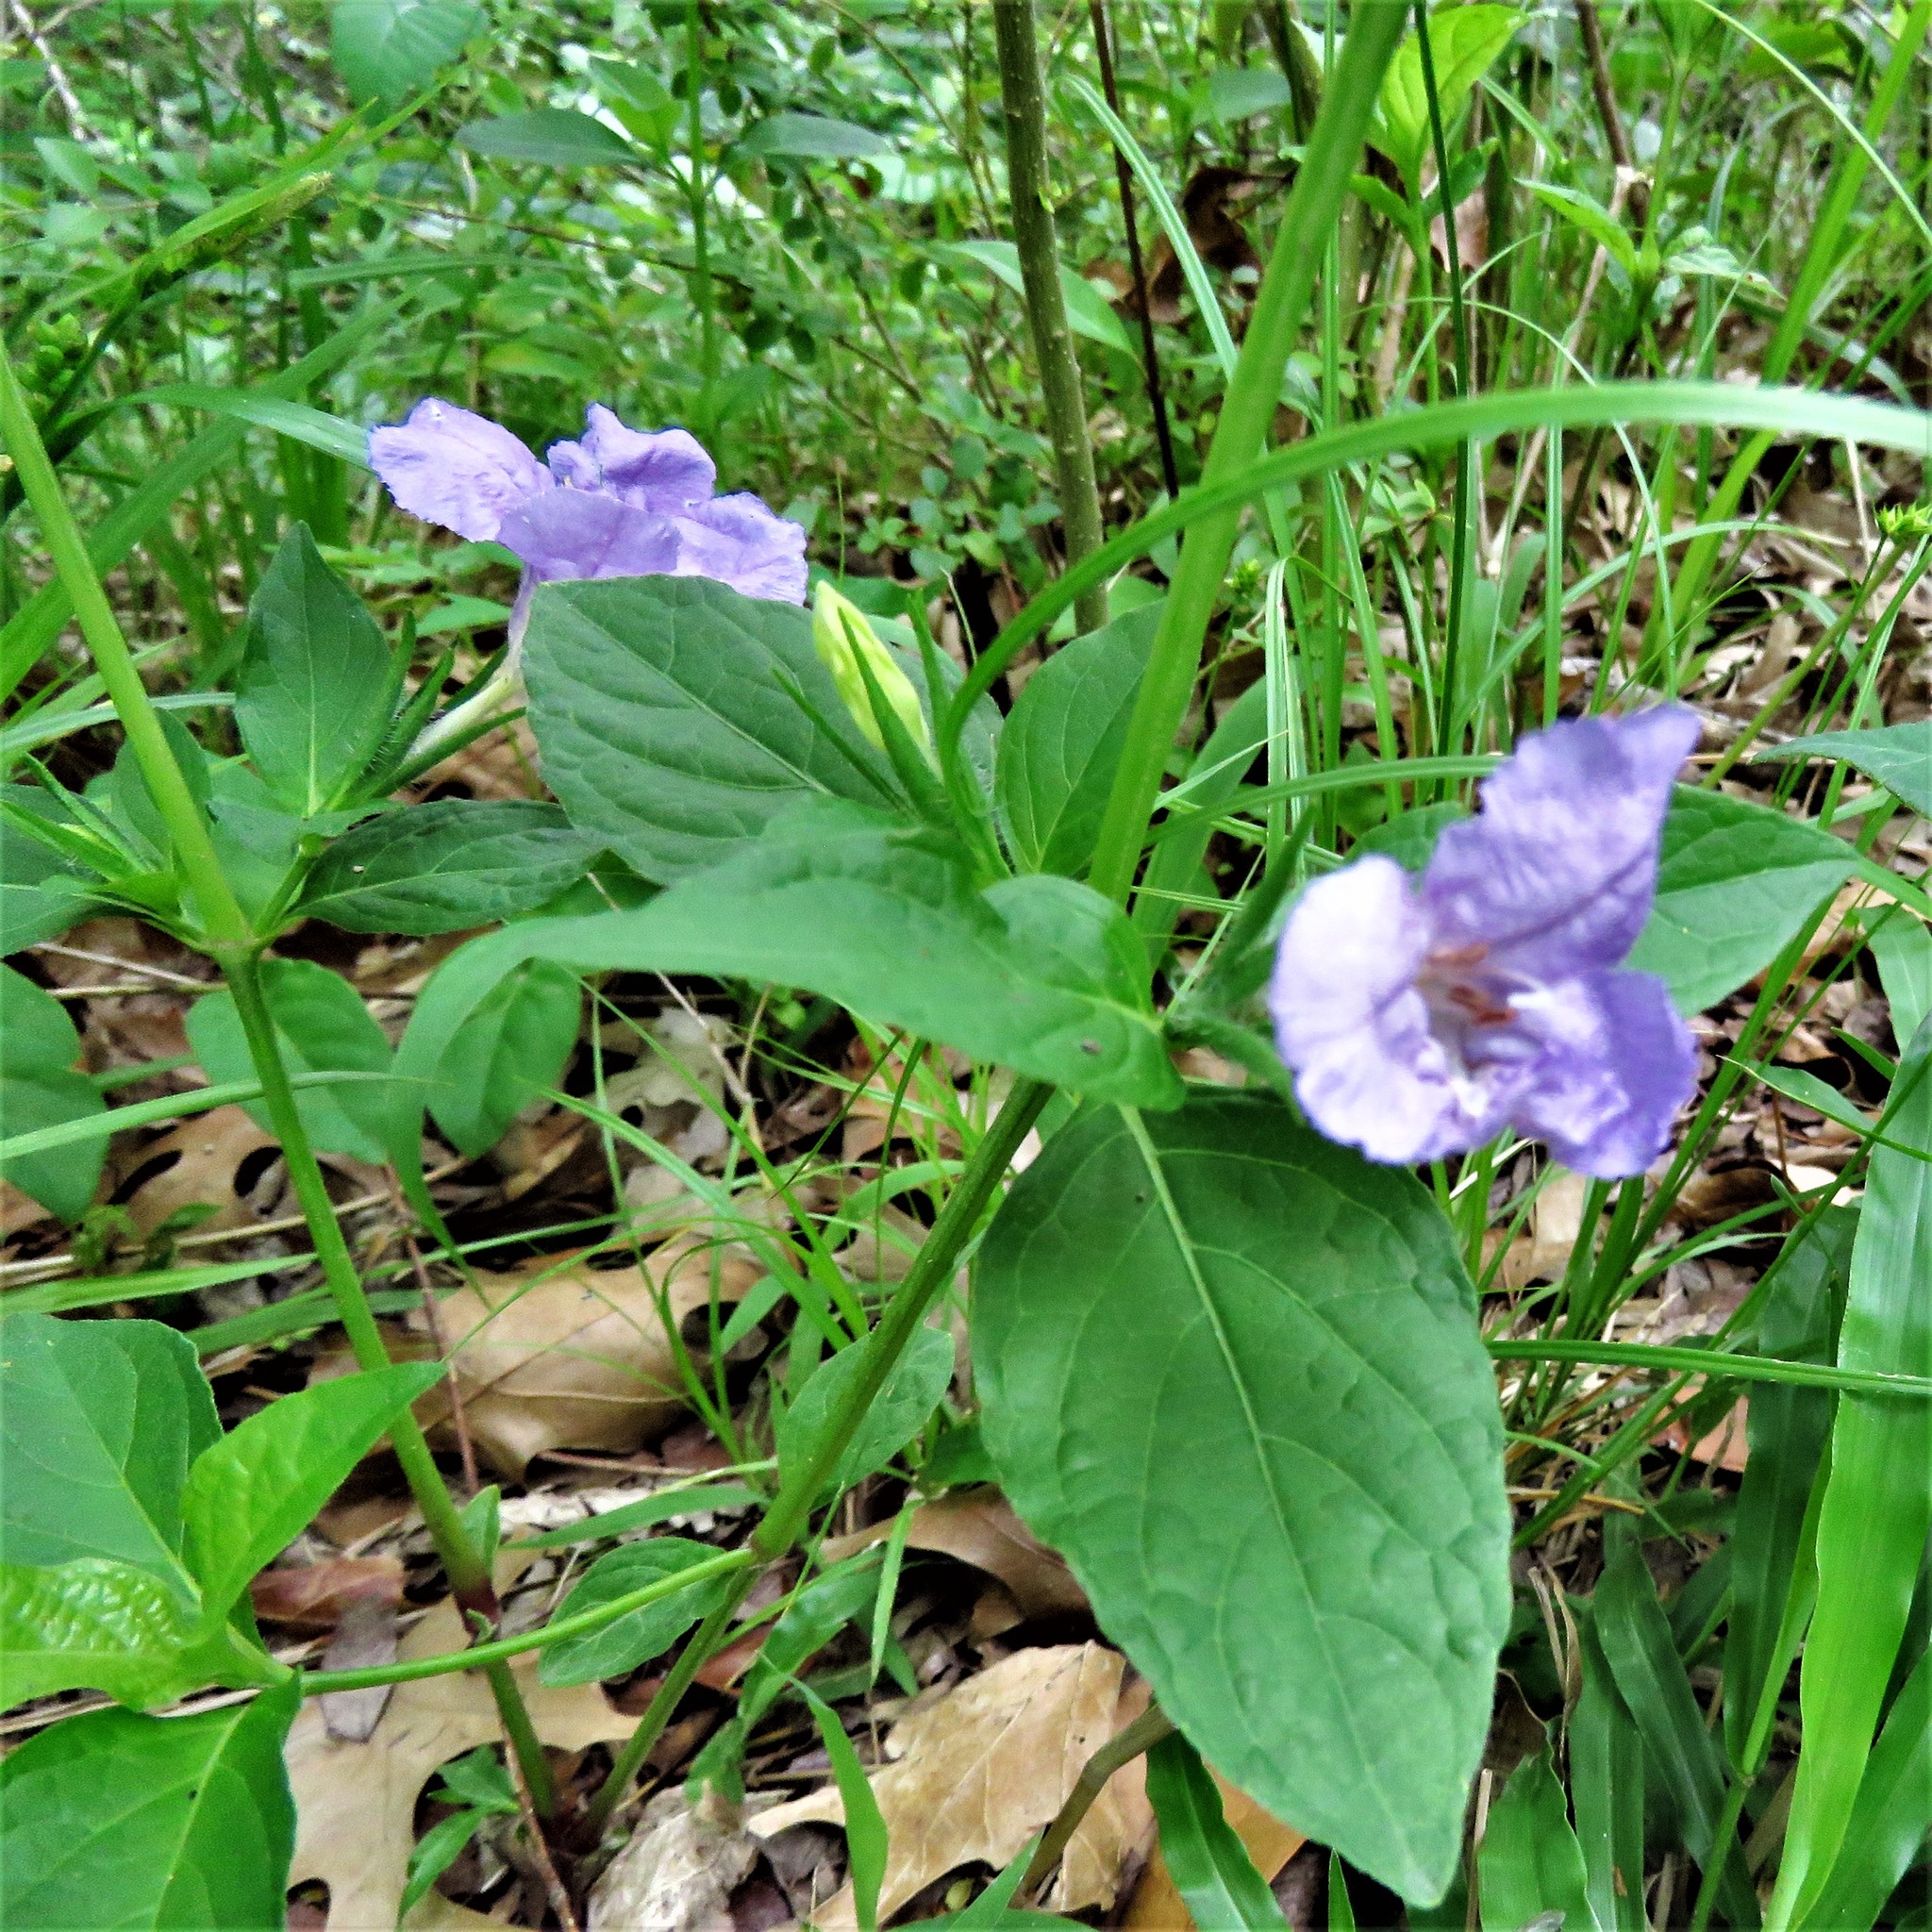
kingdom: Plantae
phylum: Tracheophyta
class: Magnoliopsida
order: Lamiales
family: Acanthaceae
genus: Ruellia
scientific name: Ruellia strepens
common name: Limestone wild petunia
